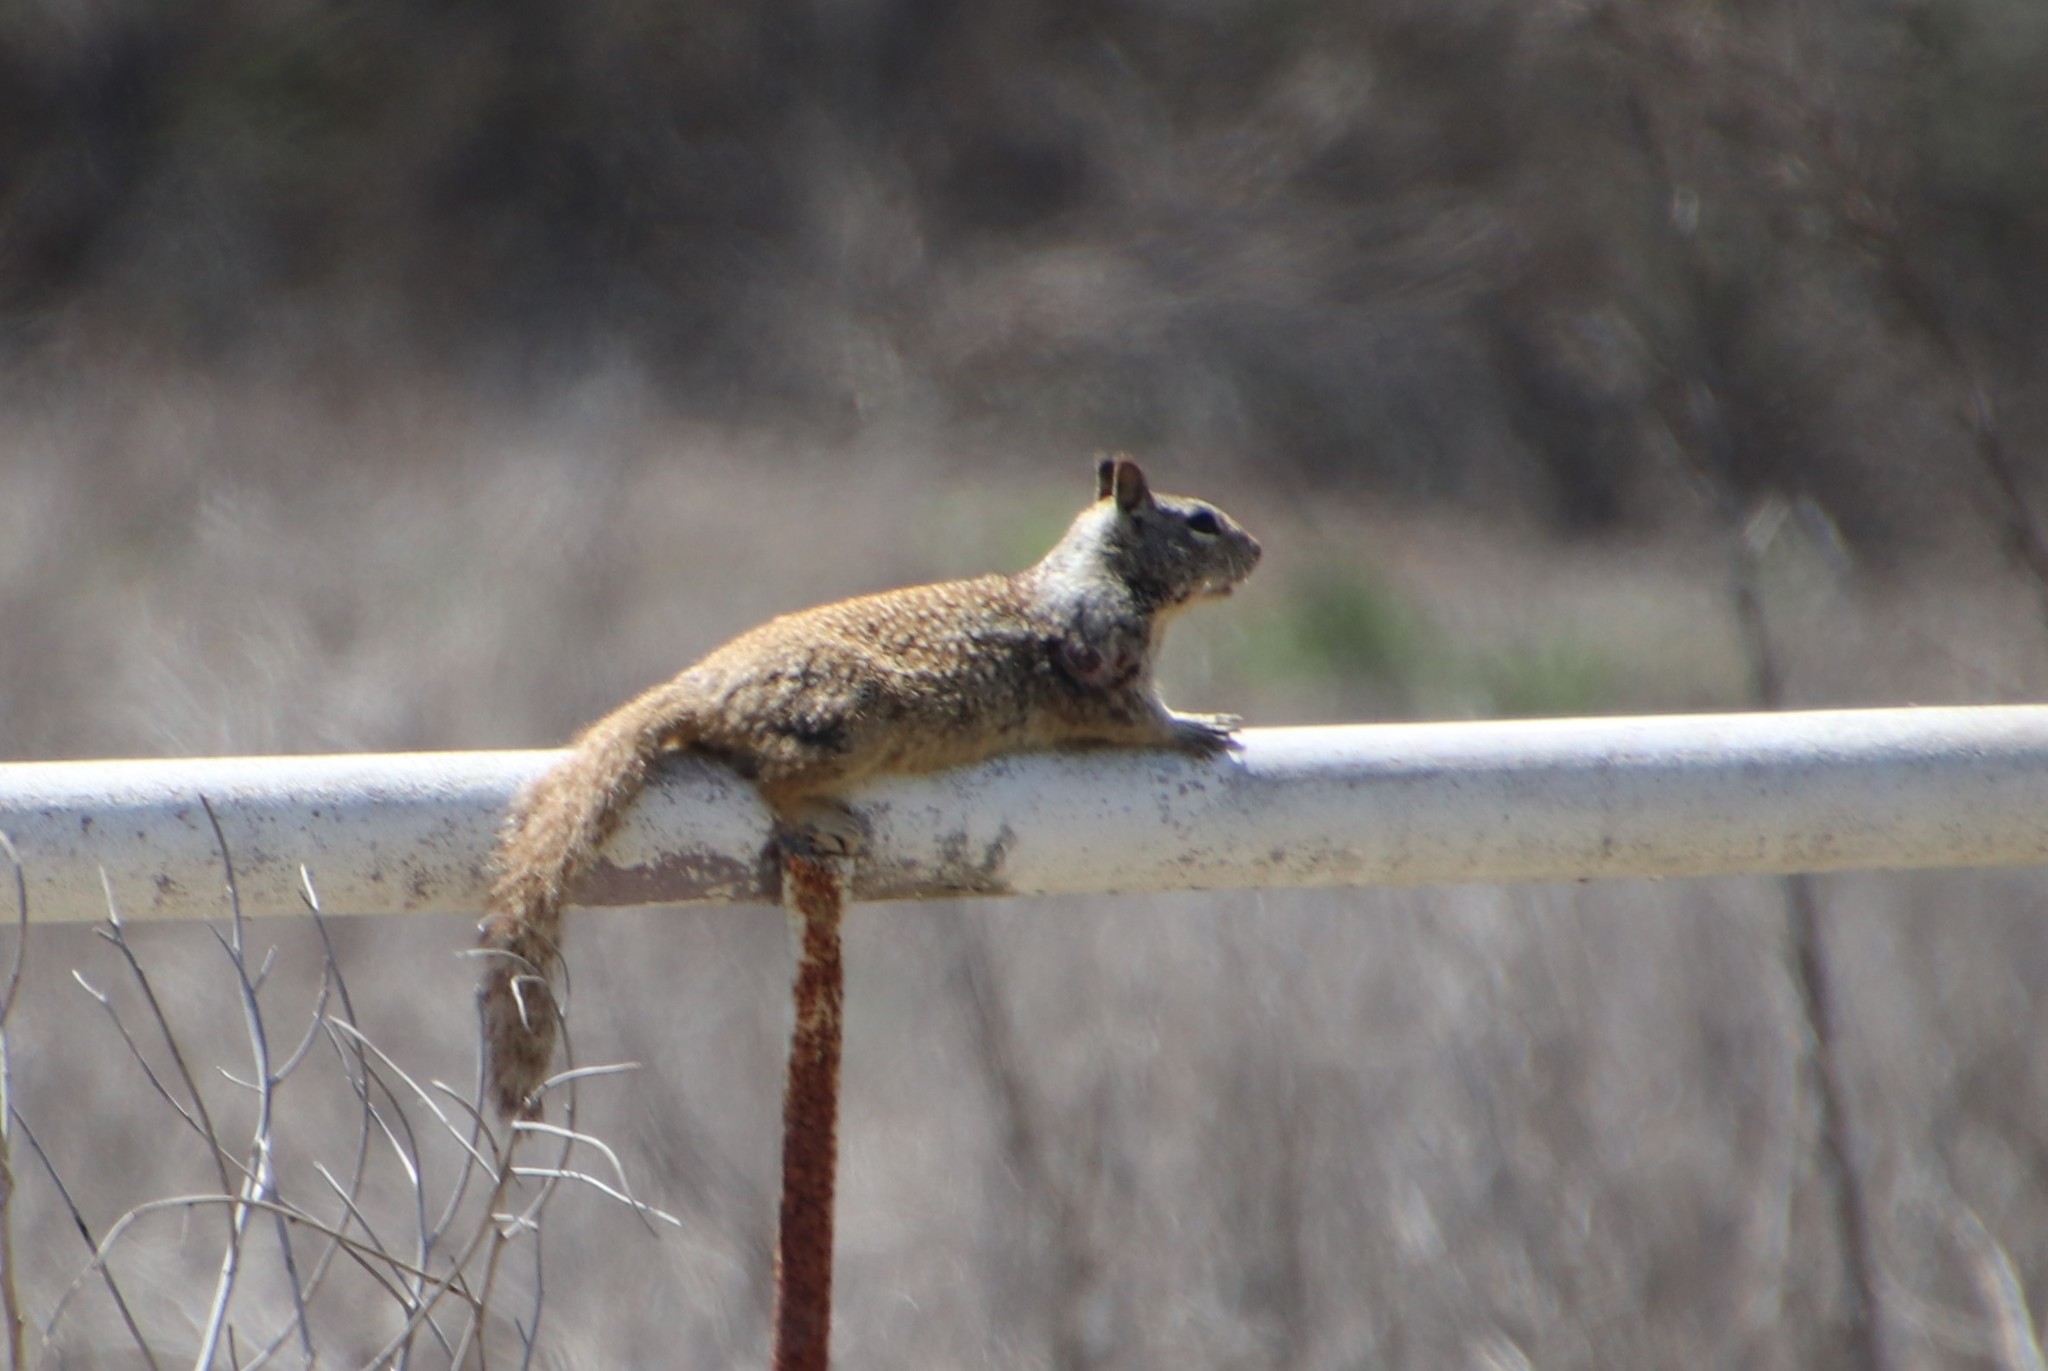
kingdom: Animalia
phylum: Chordata
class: Mammalia
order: Rodentia
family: Sciuridae
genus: Otospermophilus
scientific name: Otospermophilus beecheyi
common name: California ground squirrel
